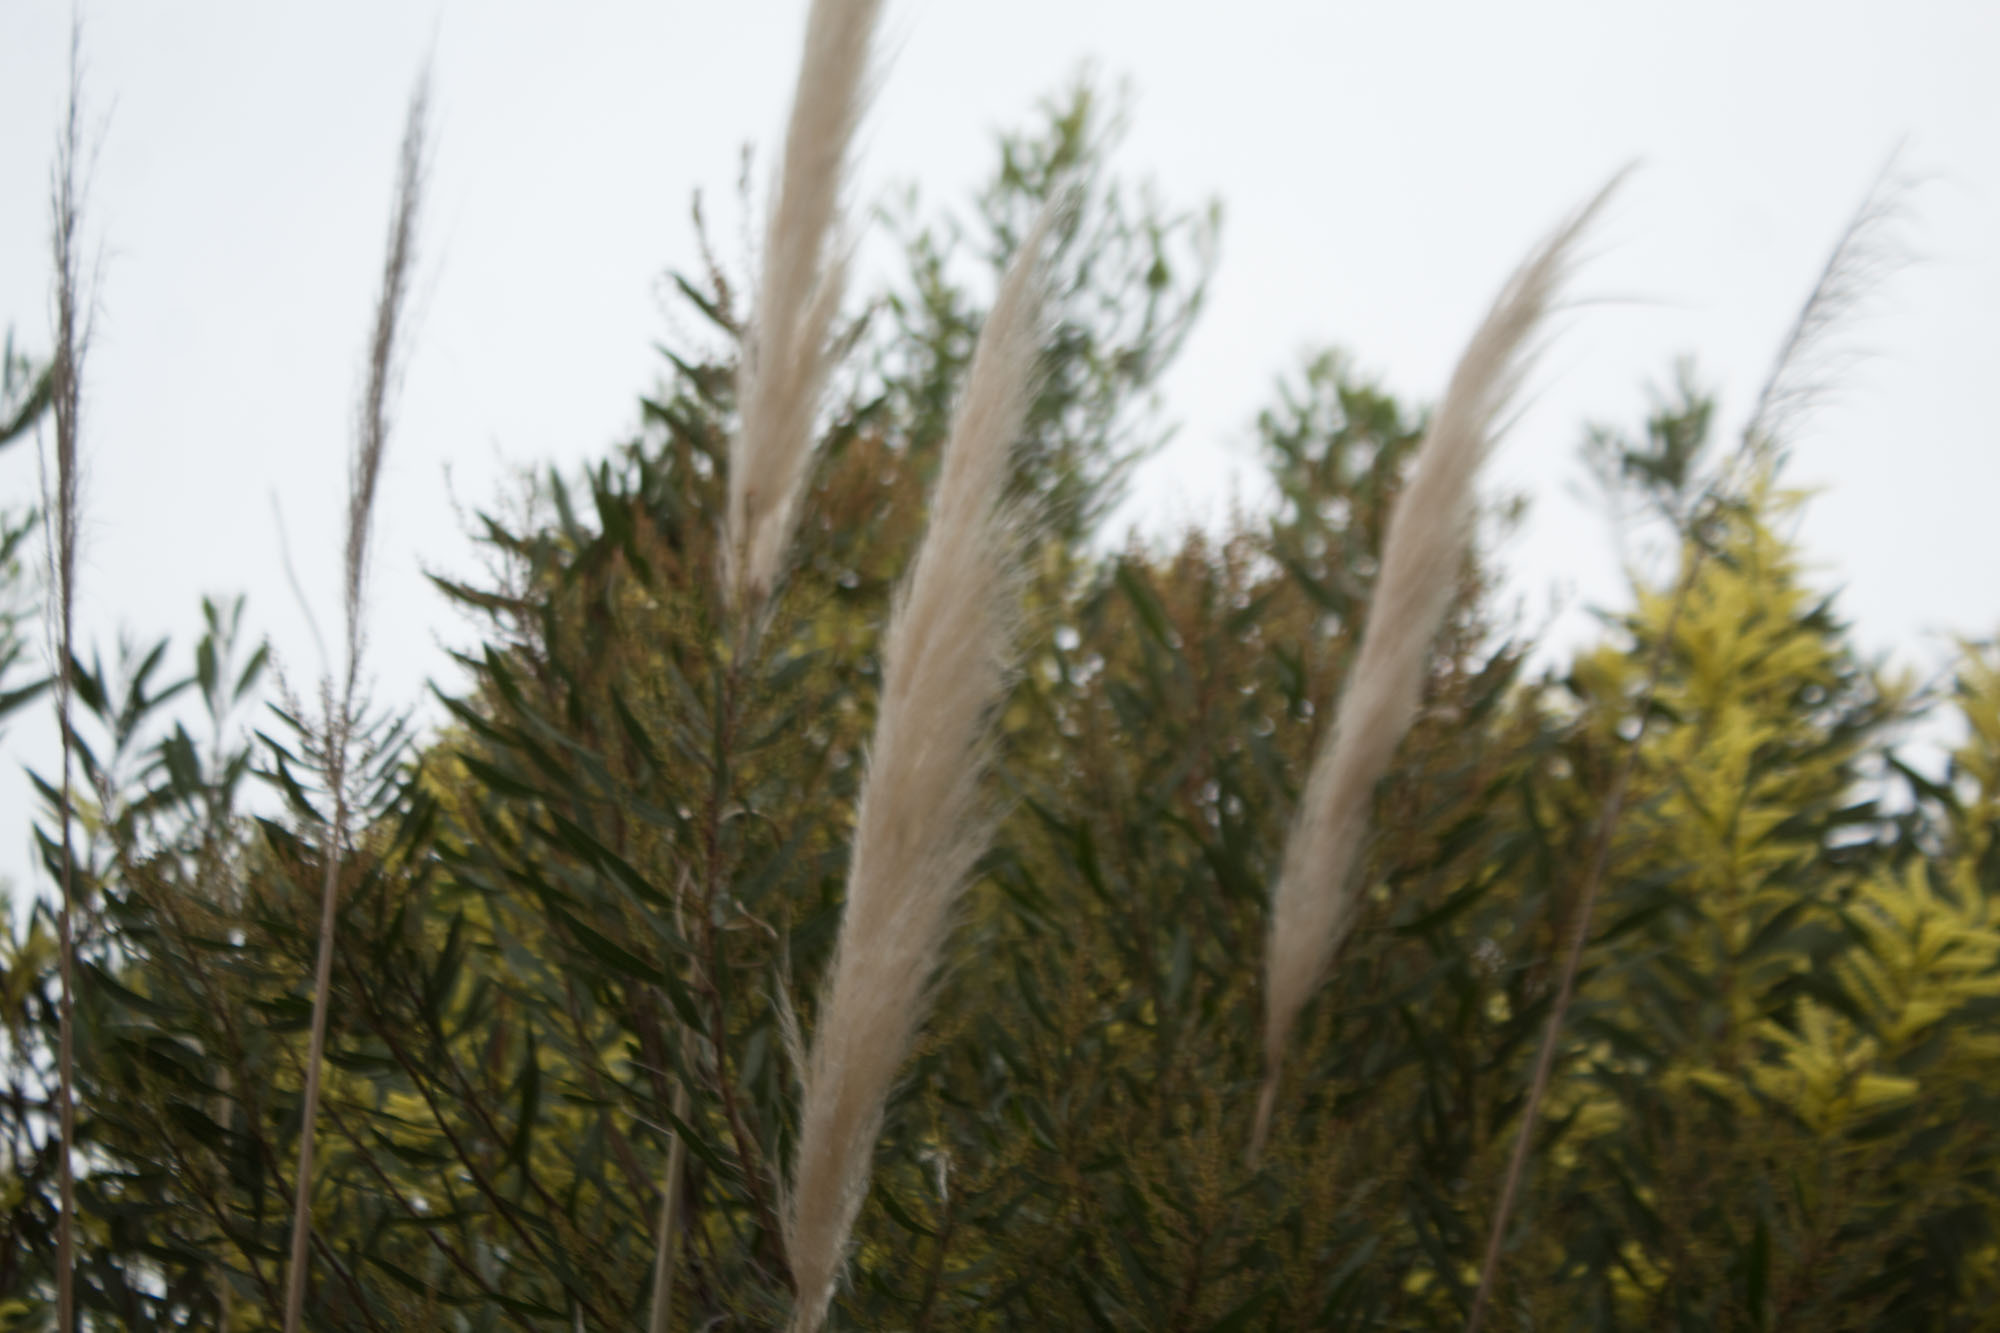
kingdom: Plantae
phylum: Tracheophyta
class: Liliopsida
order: Poales
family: Poaceae
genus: Cortaderia
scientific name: Cortaderia selloana
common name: Uruguayan pampas grass
